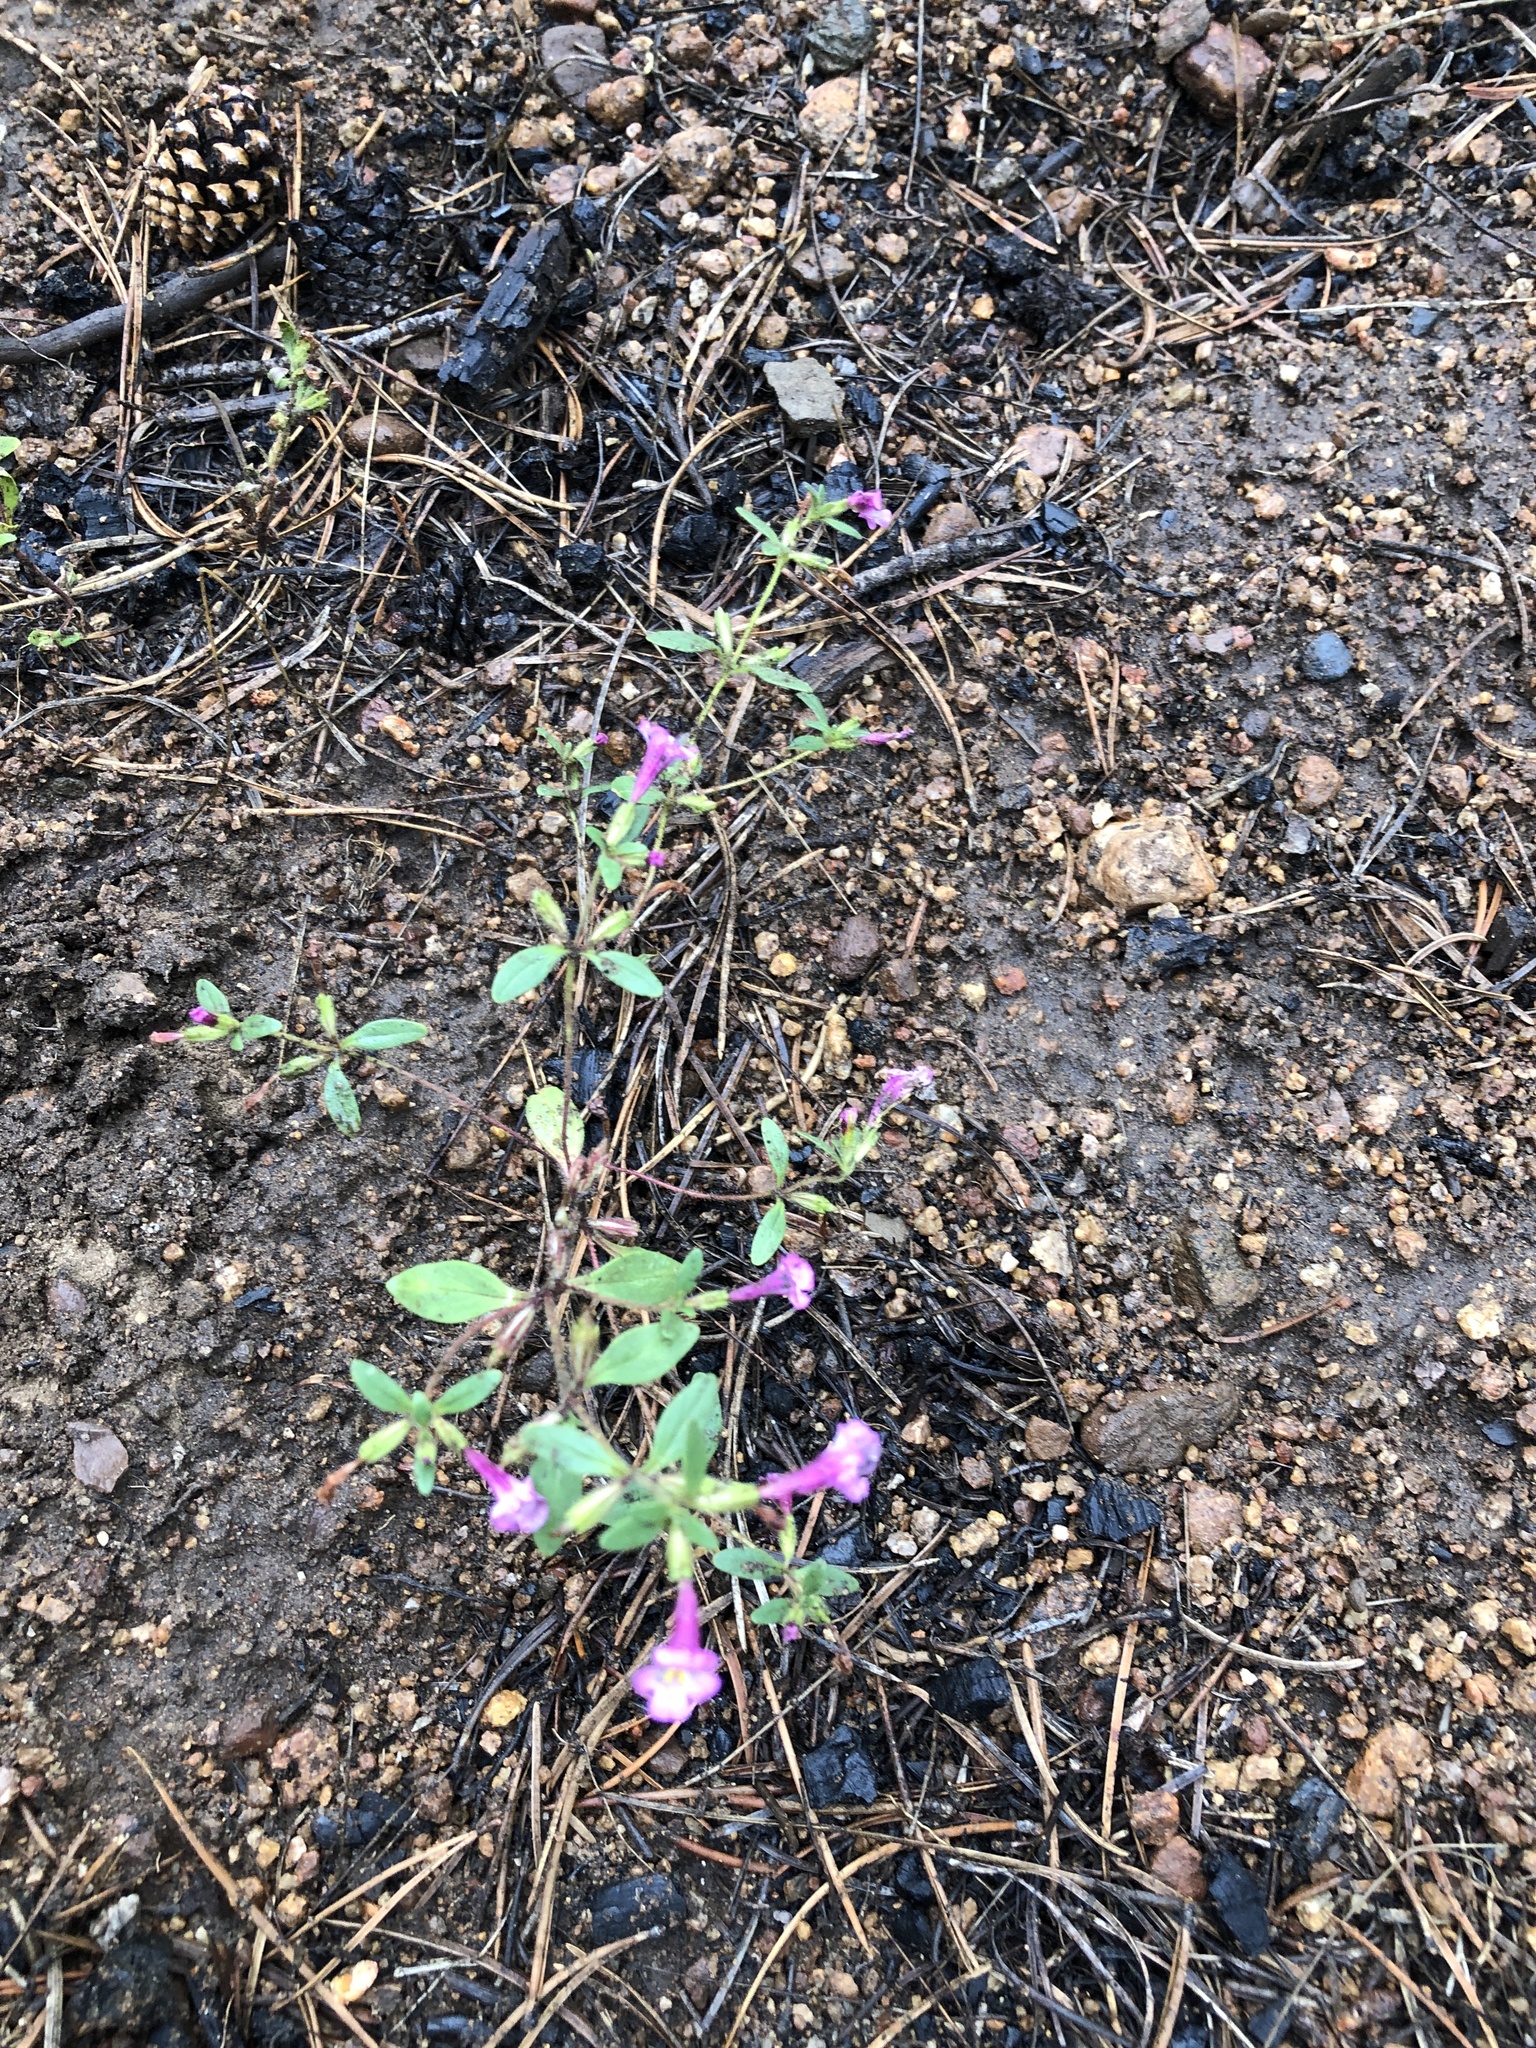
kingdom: Plantae
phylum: Tracheophyta
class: Magnoliopsida
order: Lamiales
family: Phrymaceae
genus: Diplacus
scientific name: Diplacus torreyi
